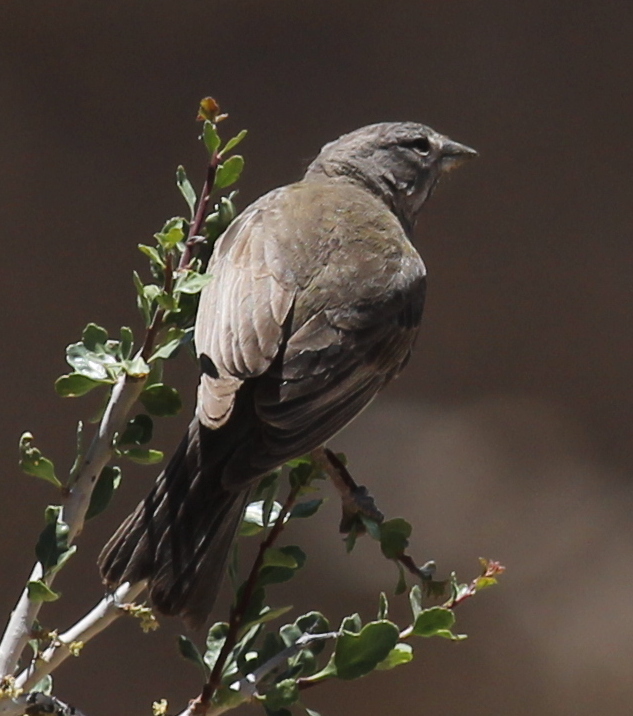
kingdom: Animalia
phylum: Chordata
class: Aves
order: Passeriformes
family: Thraupidae
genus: Phrygilus
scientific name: Phrygilus gayi
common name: Grey-hooded sierra finch
